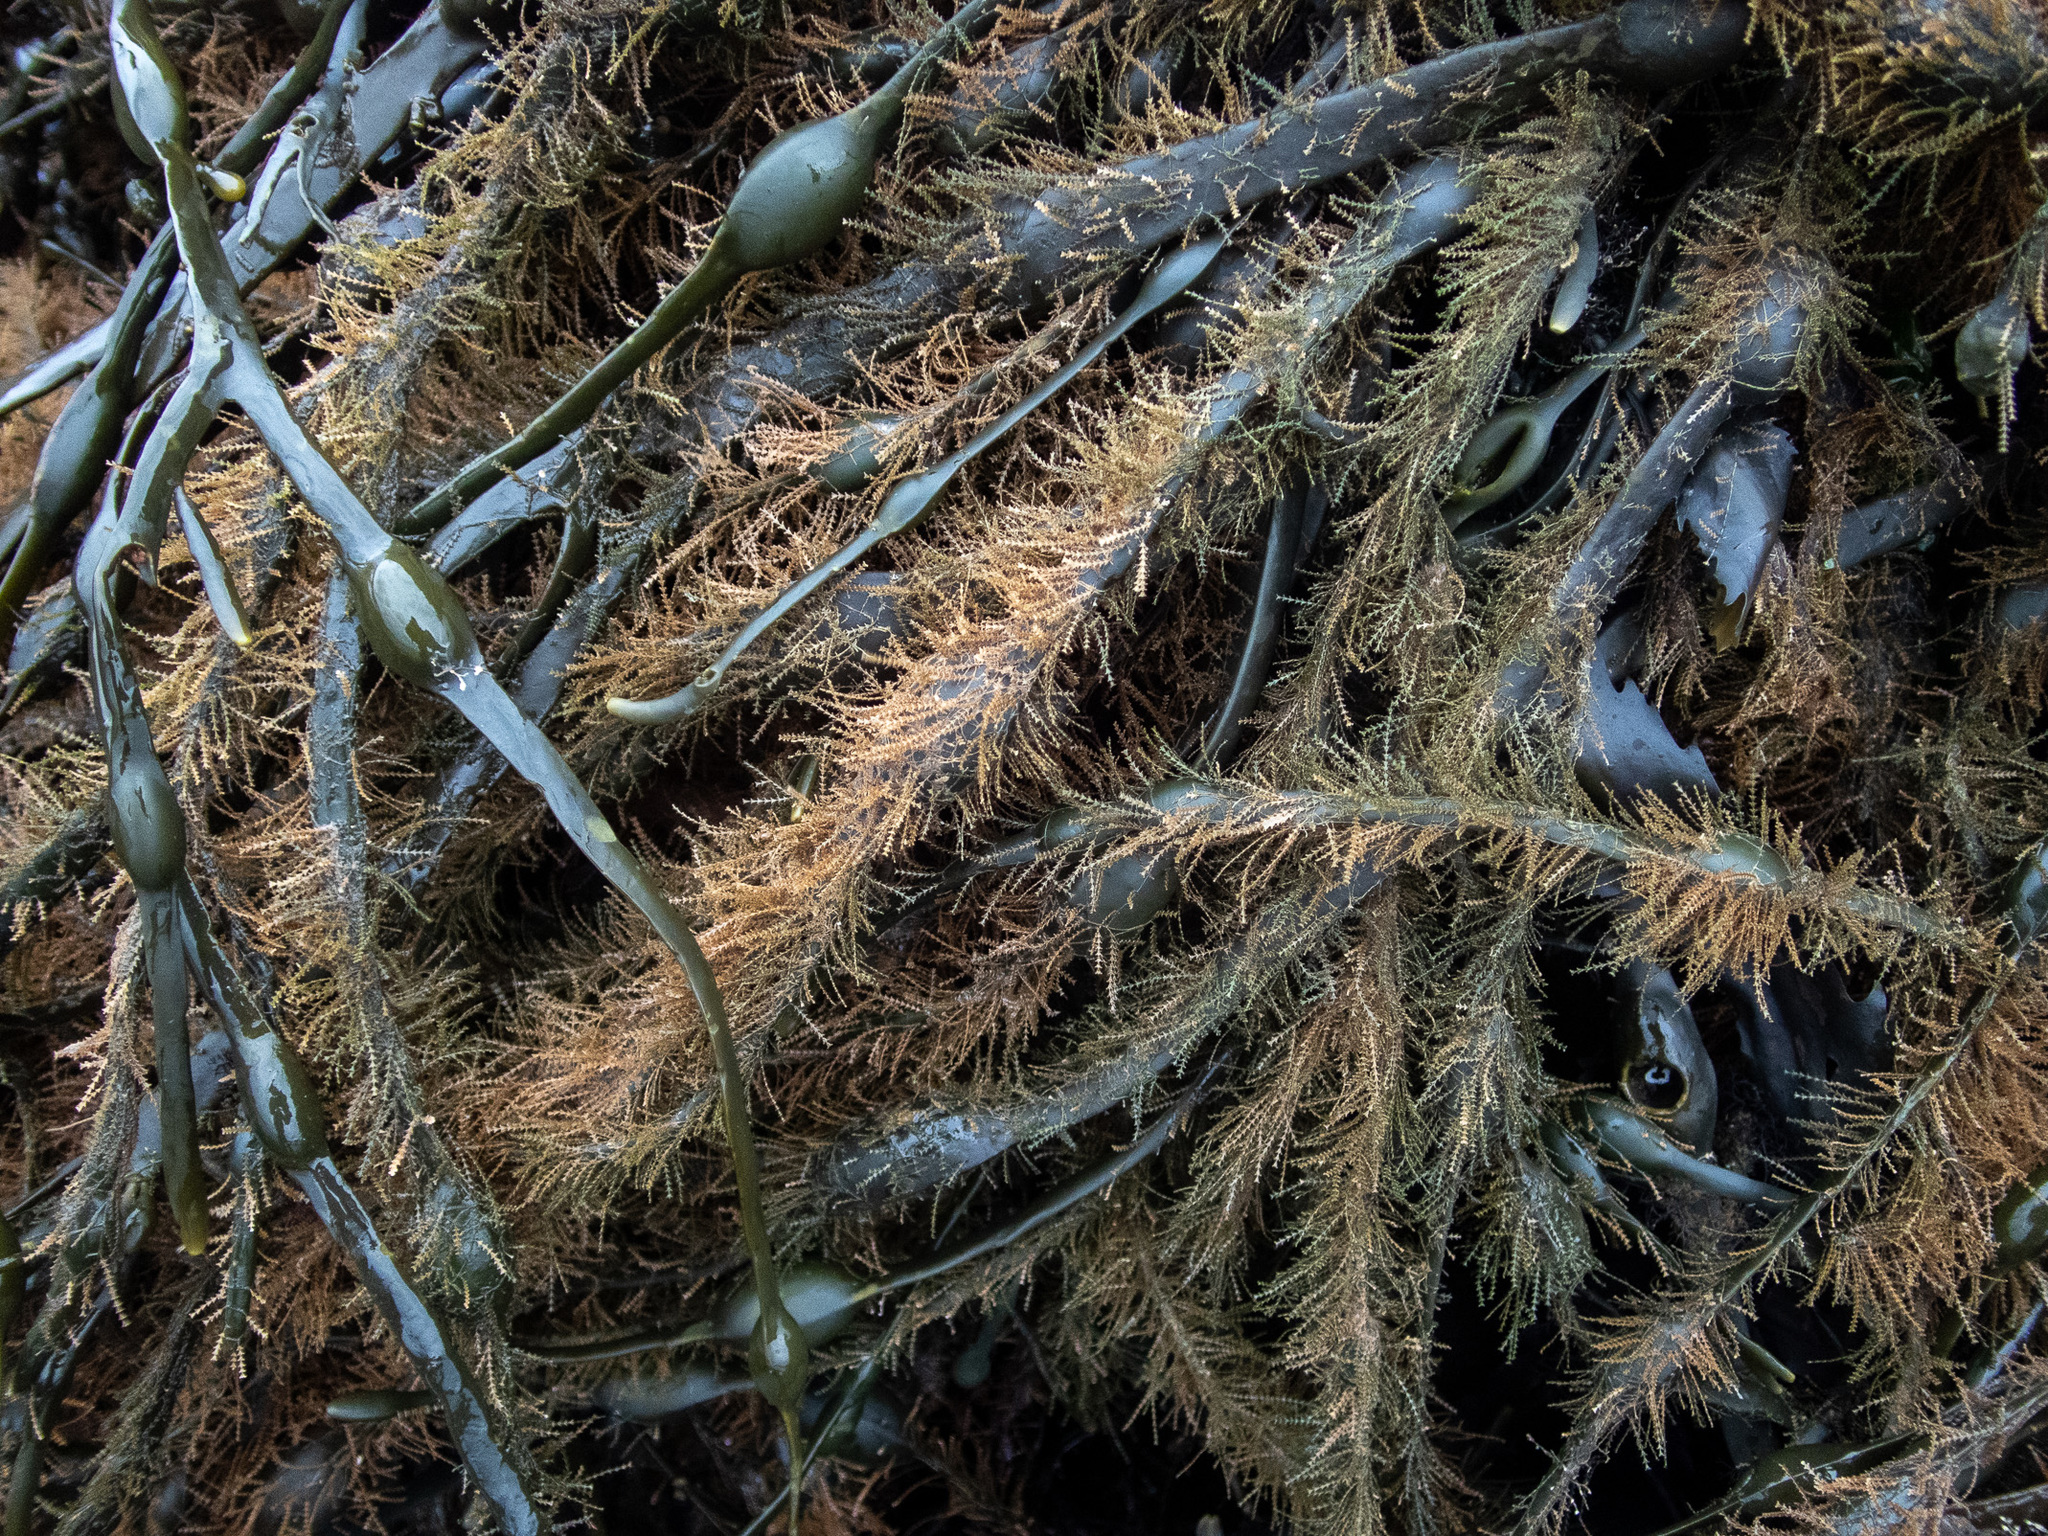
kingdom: Animalia
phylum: Cnidaria
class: Hydrozoa
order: Leptothecata
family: Sertulariidae
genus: Dynamena
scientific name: Dynamena pumila
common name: Sea oak
